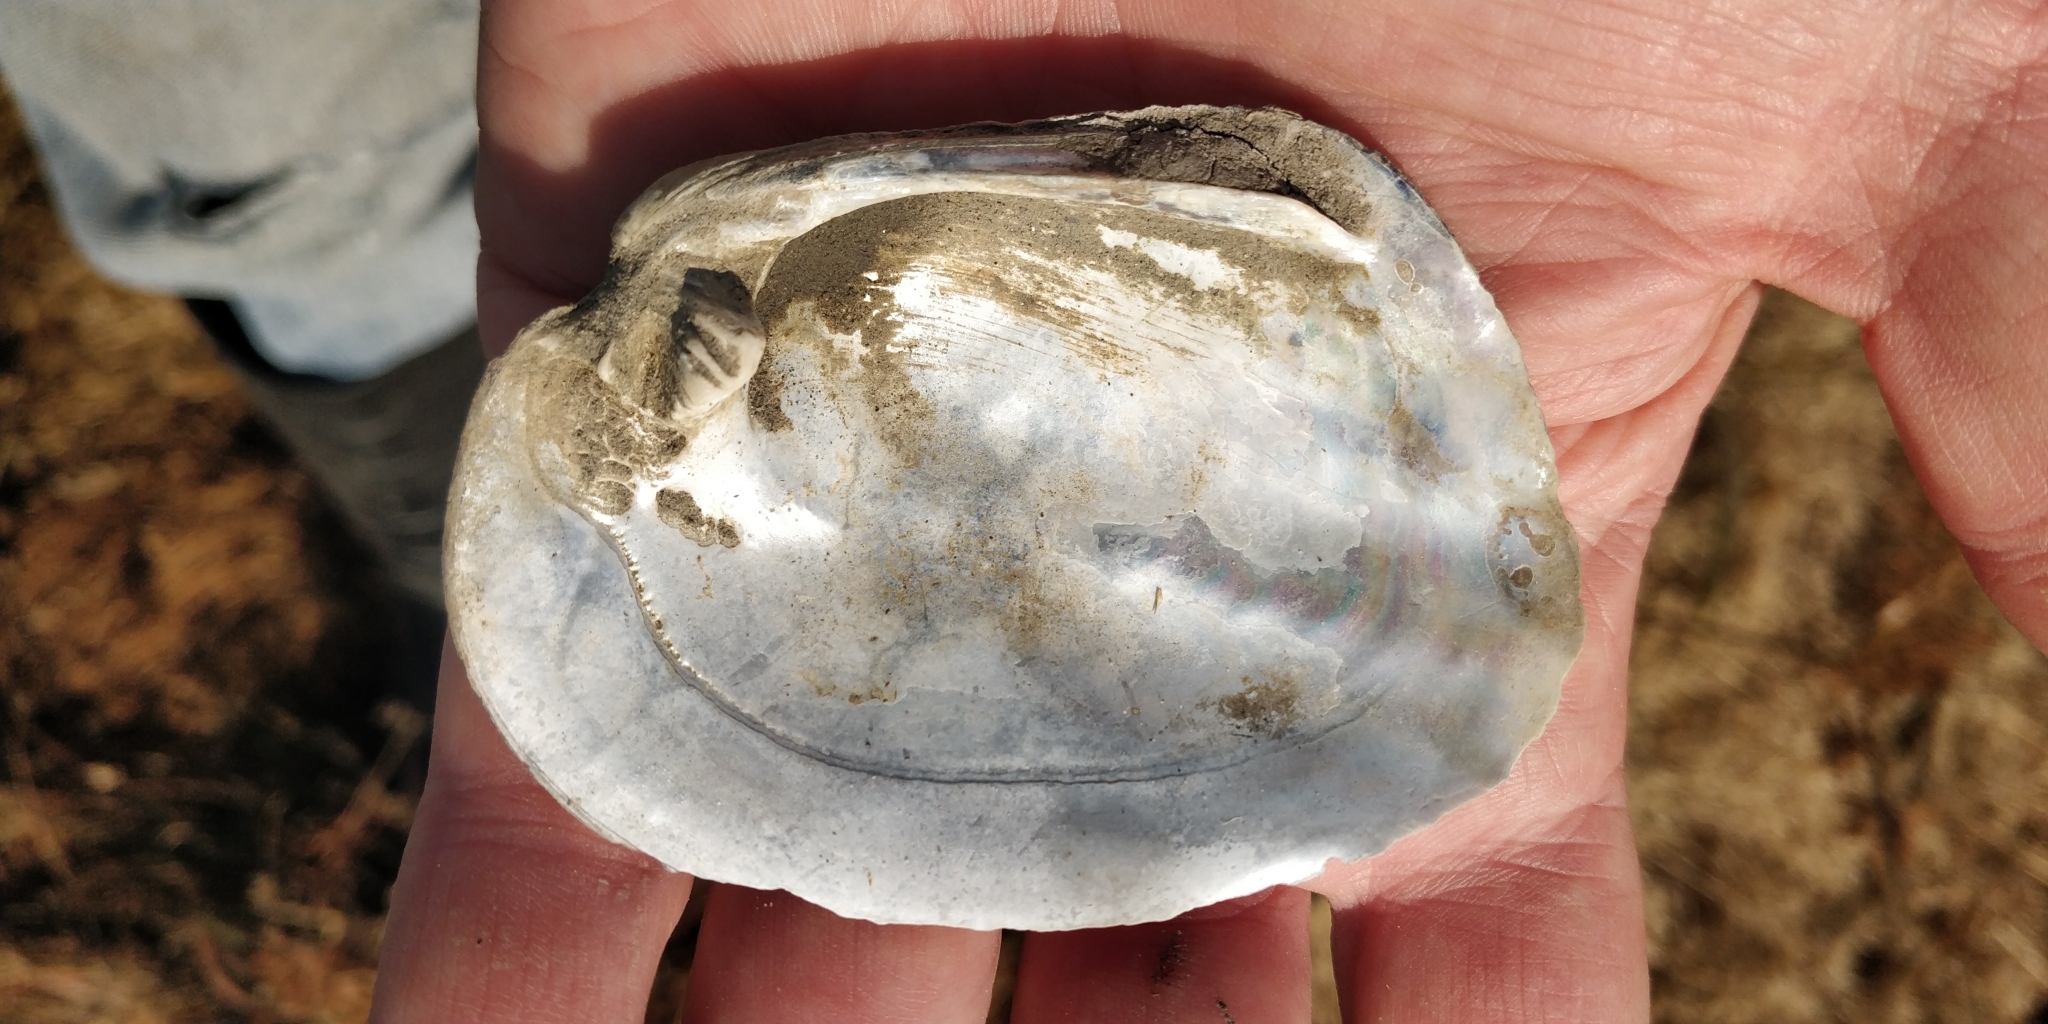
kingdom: Animalia
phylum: Mollusca
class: Bivalvia
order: Unionida
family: Unionidae
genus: Amblema
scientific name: Amblema plicata
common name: Threeridge
